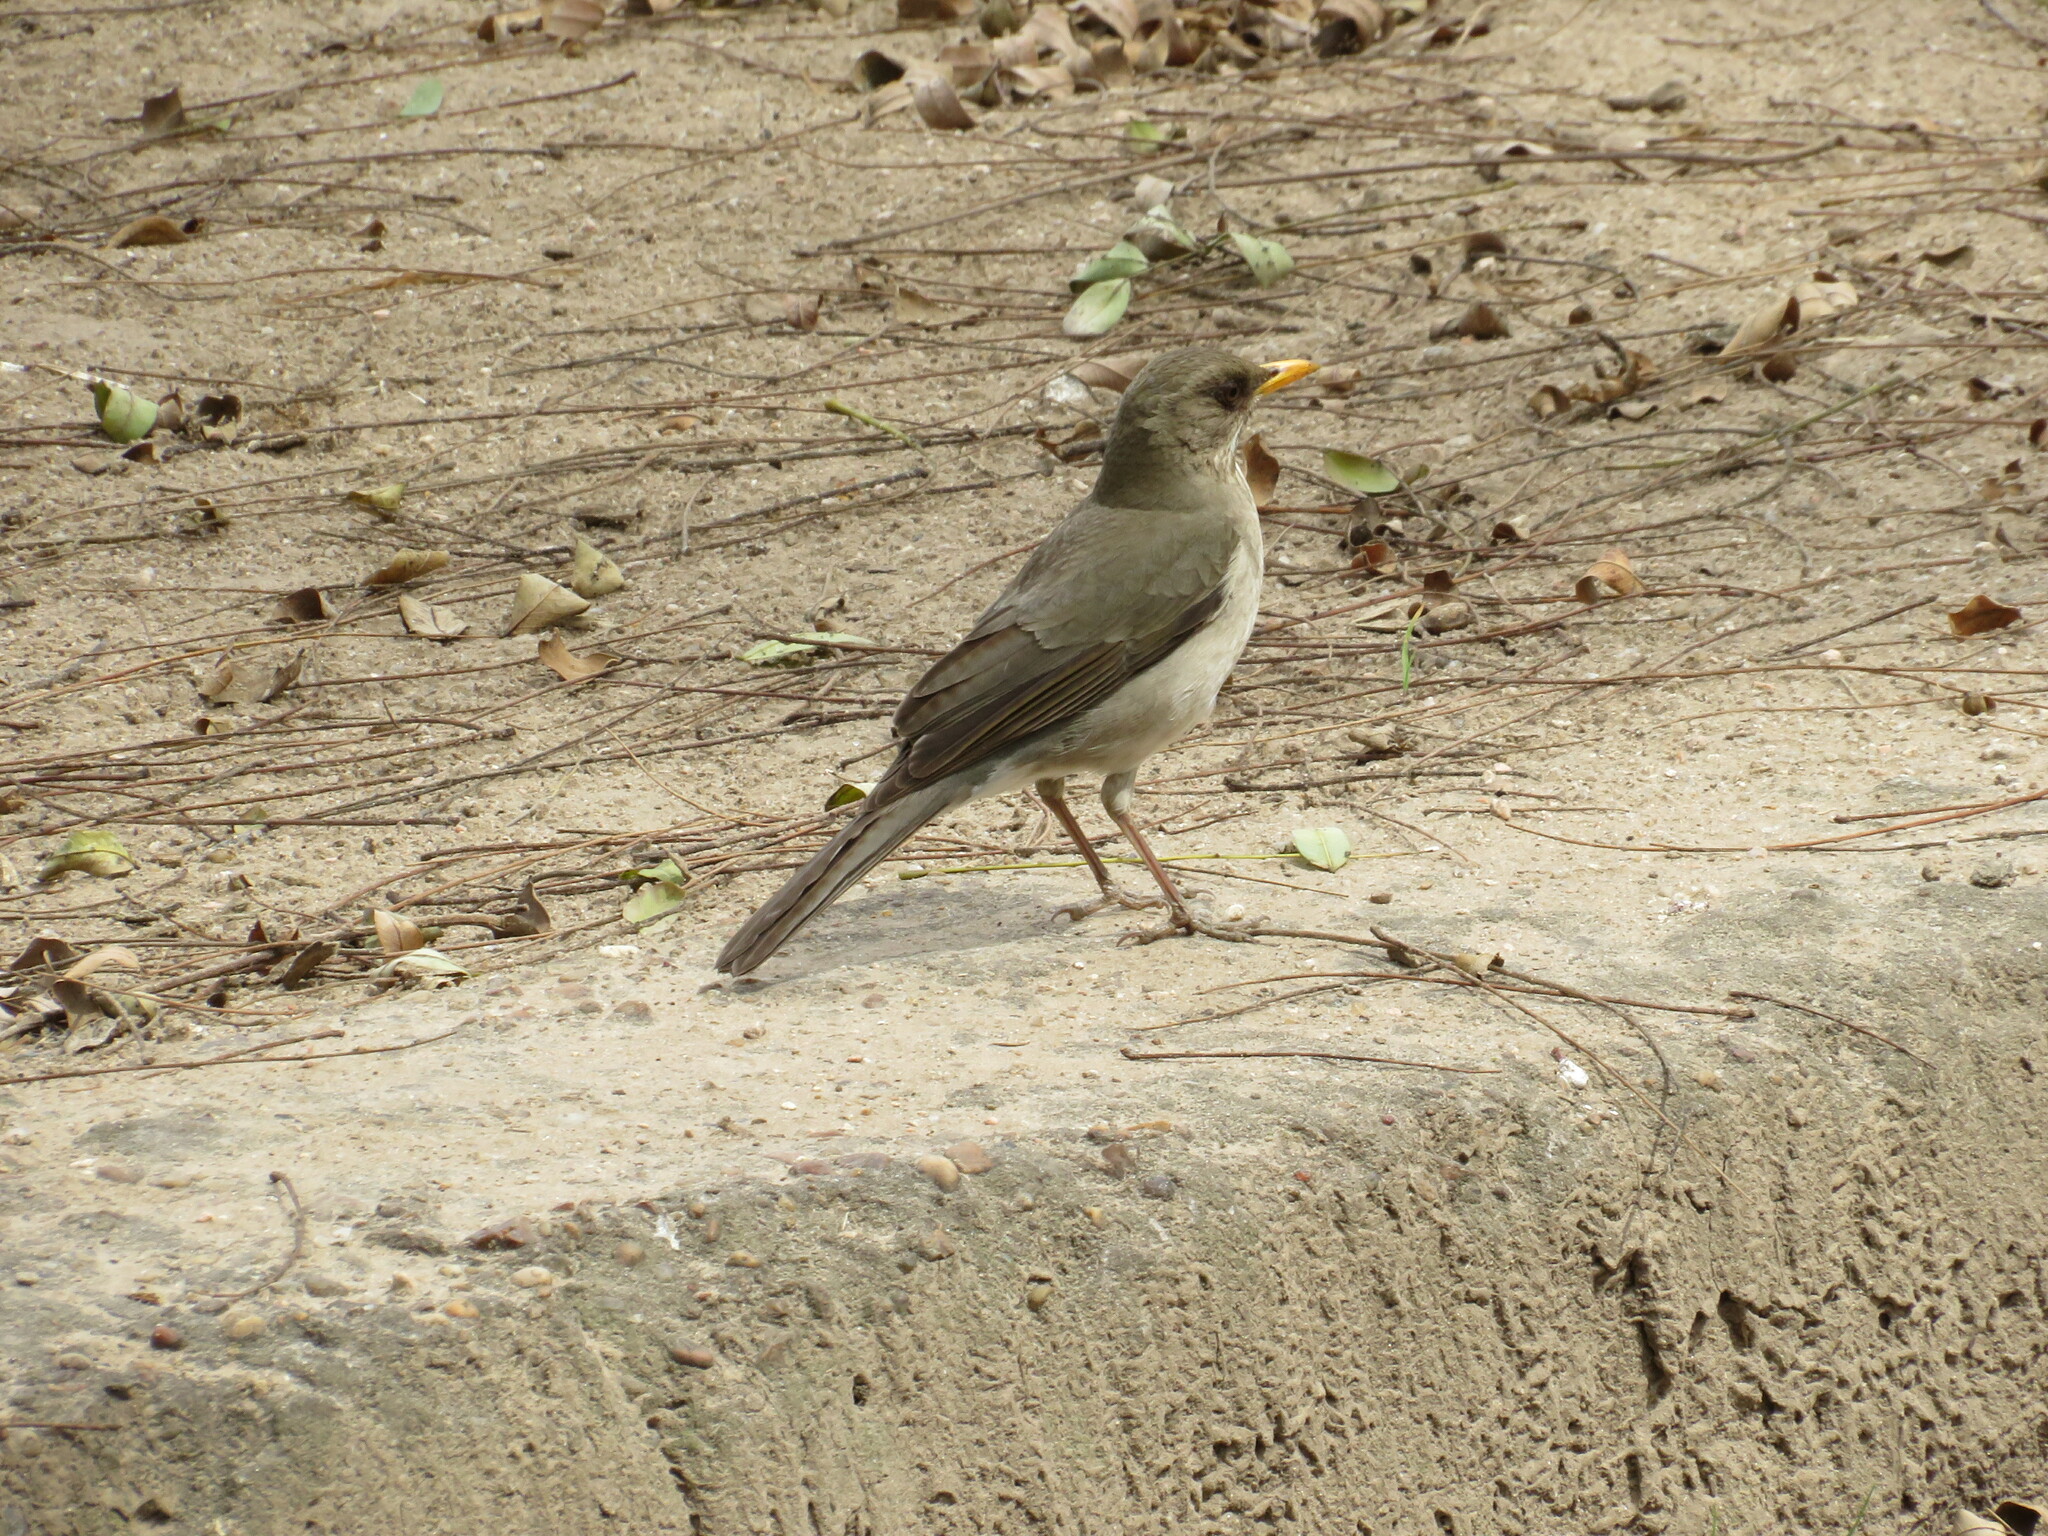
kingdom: Animalia
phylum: Chordata
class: Aves
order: Passeriformes
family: Turdidae
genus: Turdus
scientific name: Turdus amaurochalinus
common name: Creamy-bellied thrush
